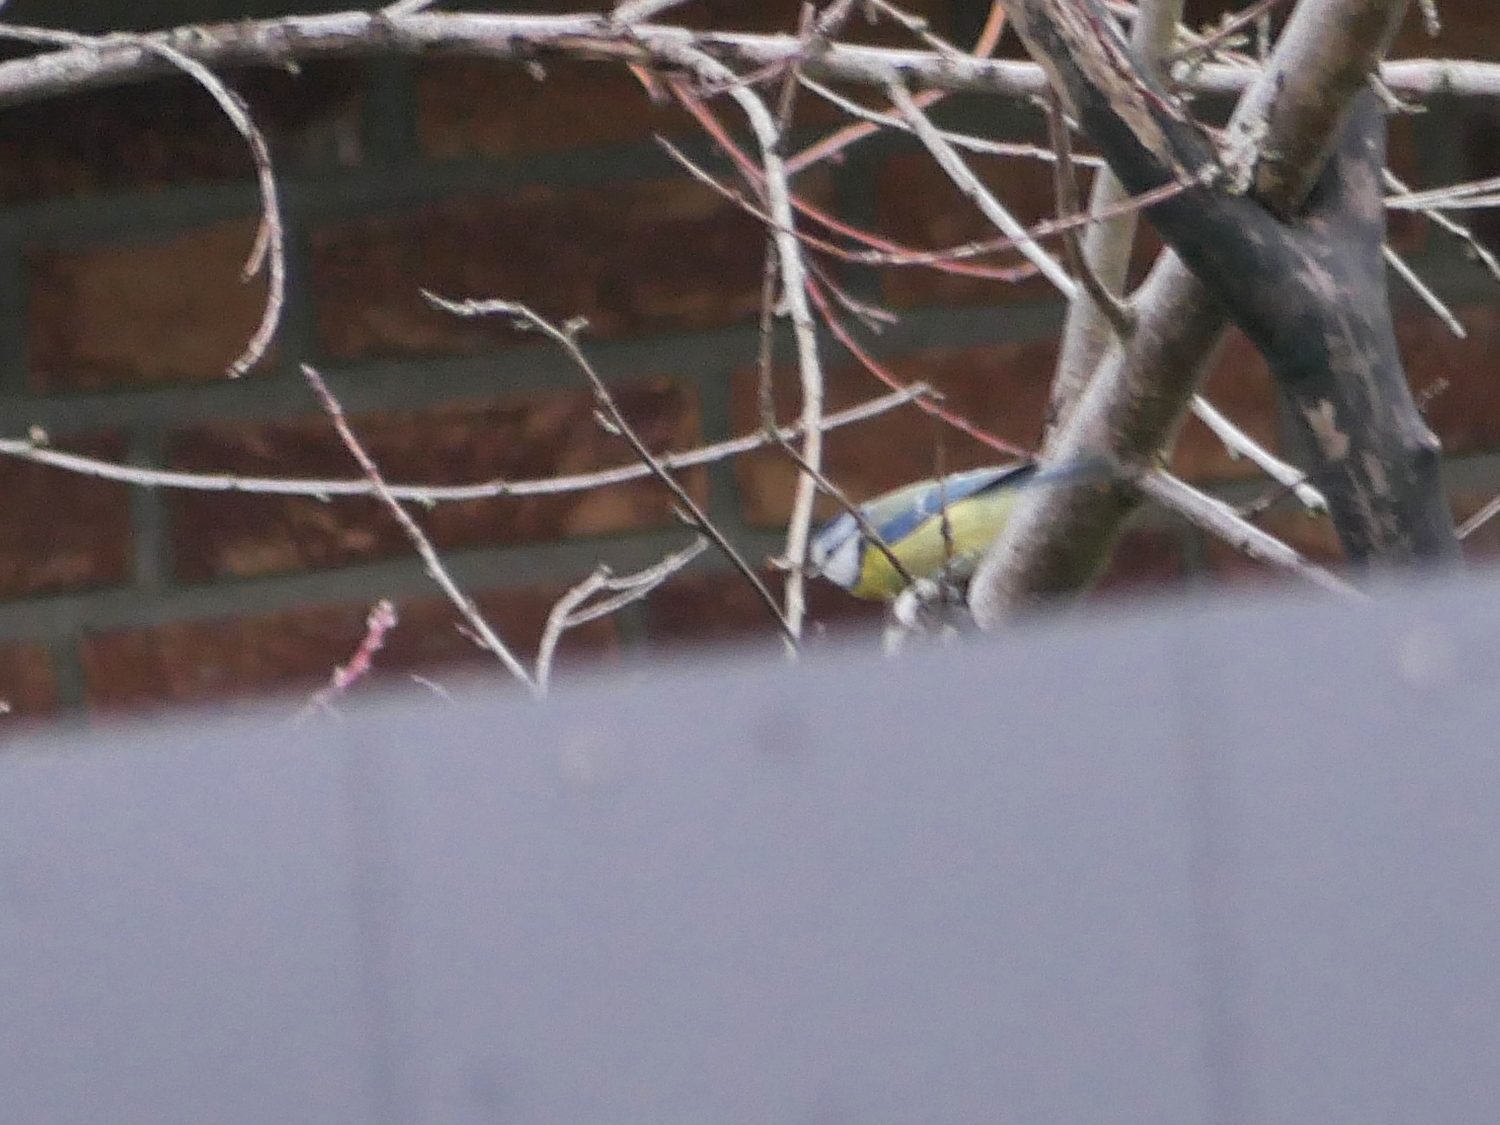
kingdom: Animalia
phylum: Chordata
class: Aves
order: Passeriformes
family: Paridae
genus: Cyanistes
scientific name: Cyanistes caeruleus
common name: Eurasian blue tit
